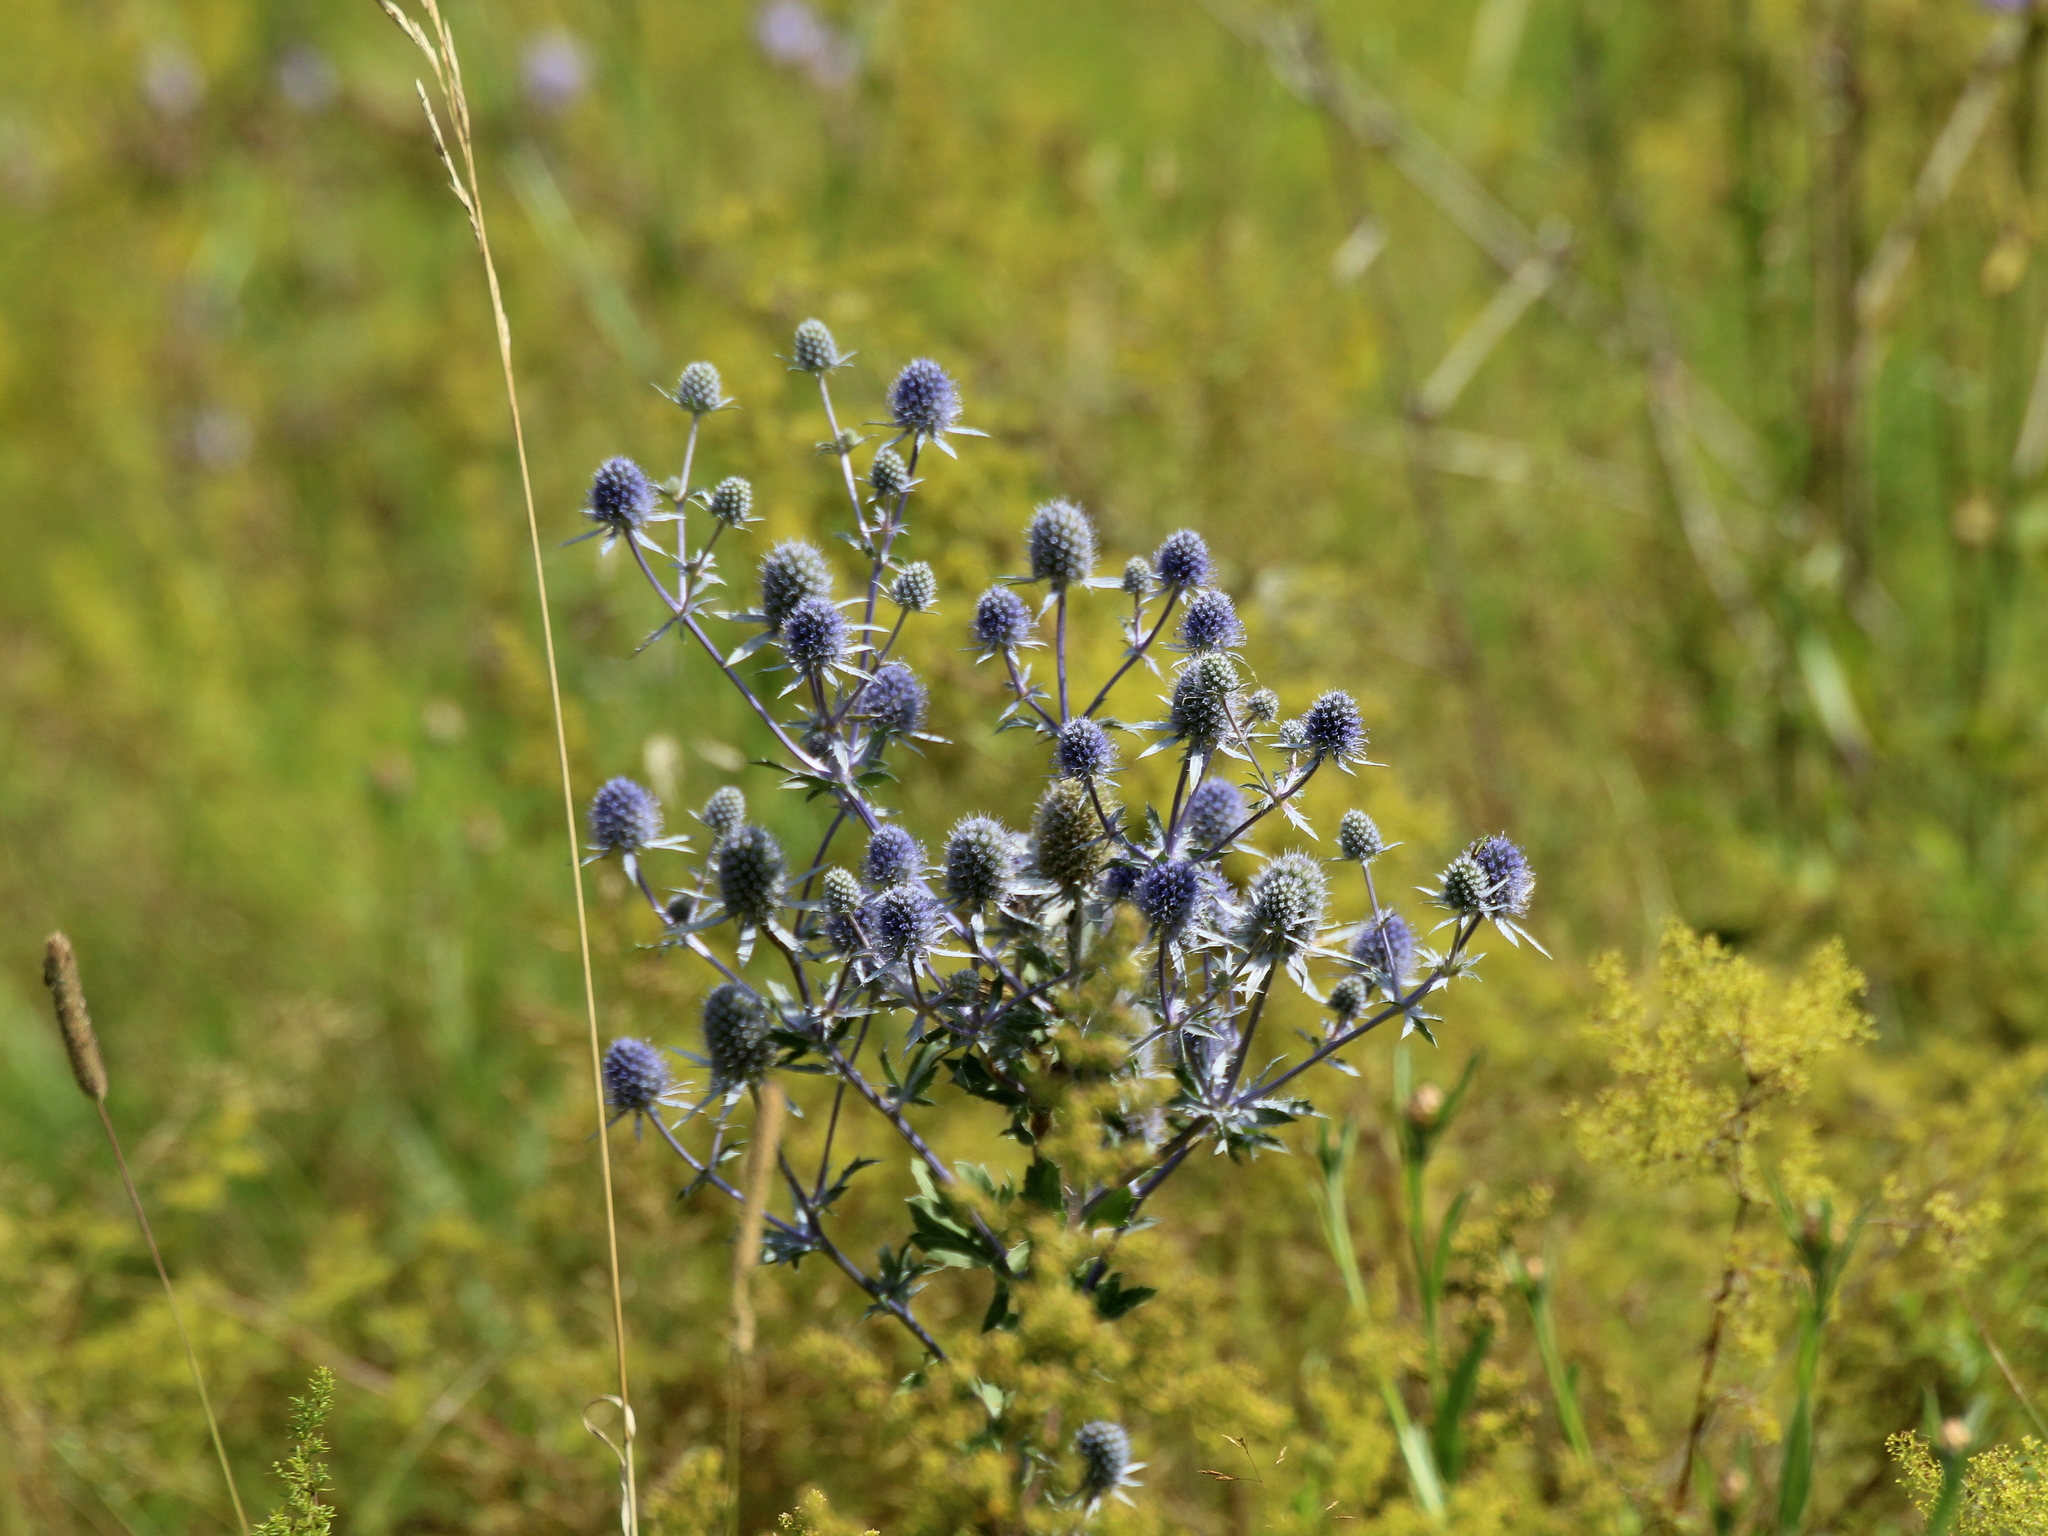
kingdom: Plantae
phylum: Tracheophyta
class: Magnoliopsida
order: Apiales
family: Apiaceae
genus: Eryngium
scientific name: Eryngium planum
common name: Blue eryngo
